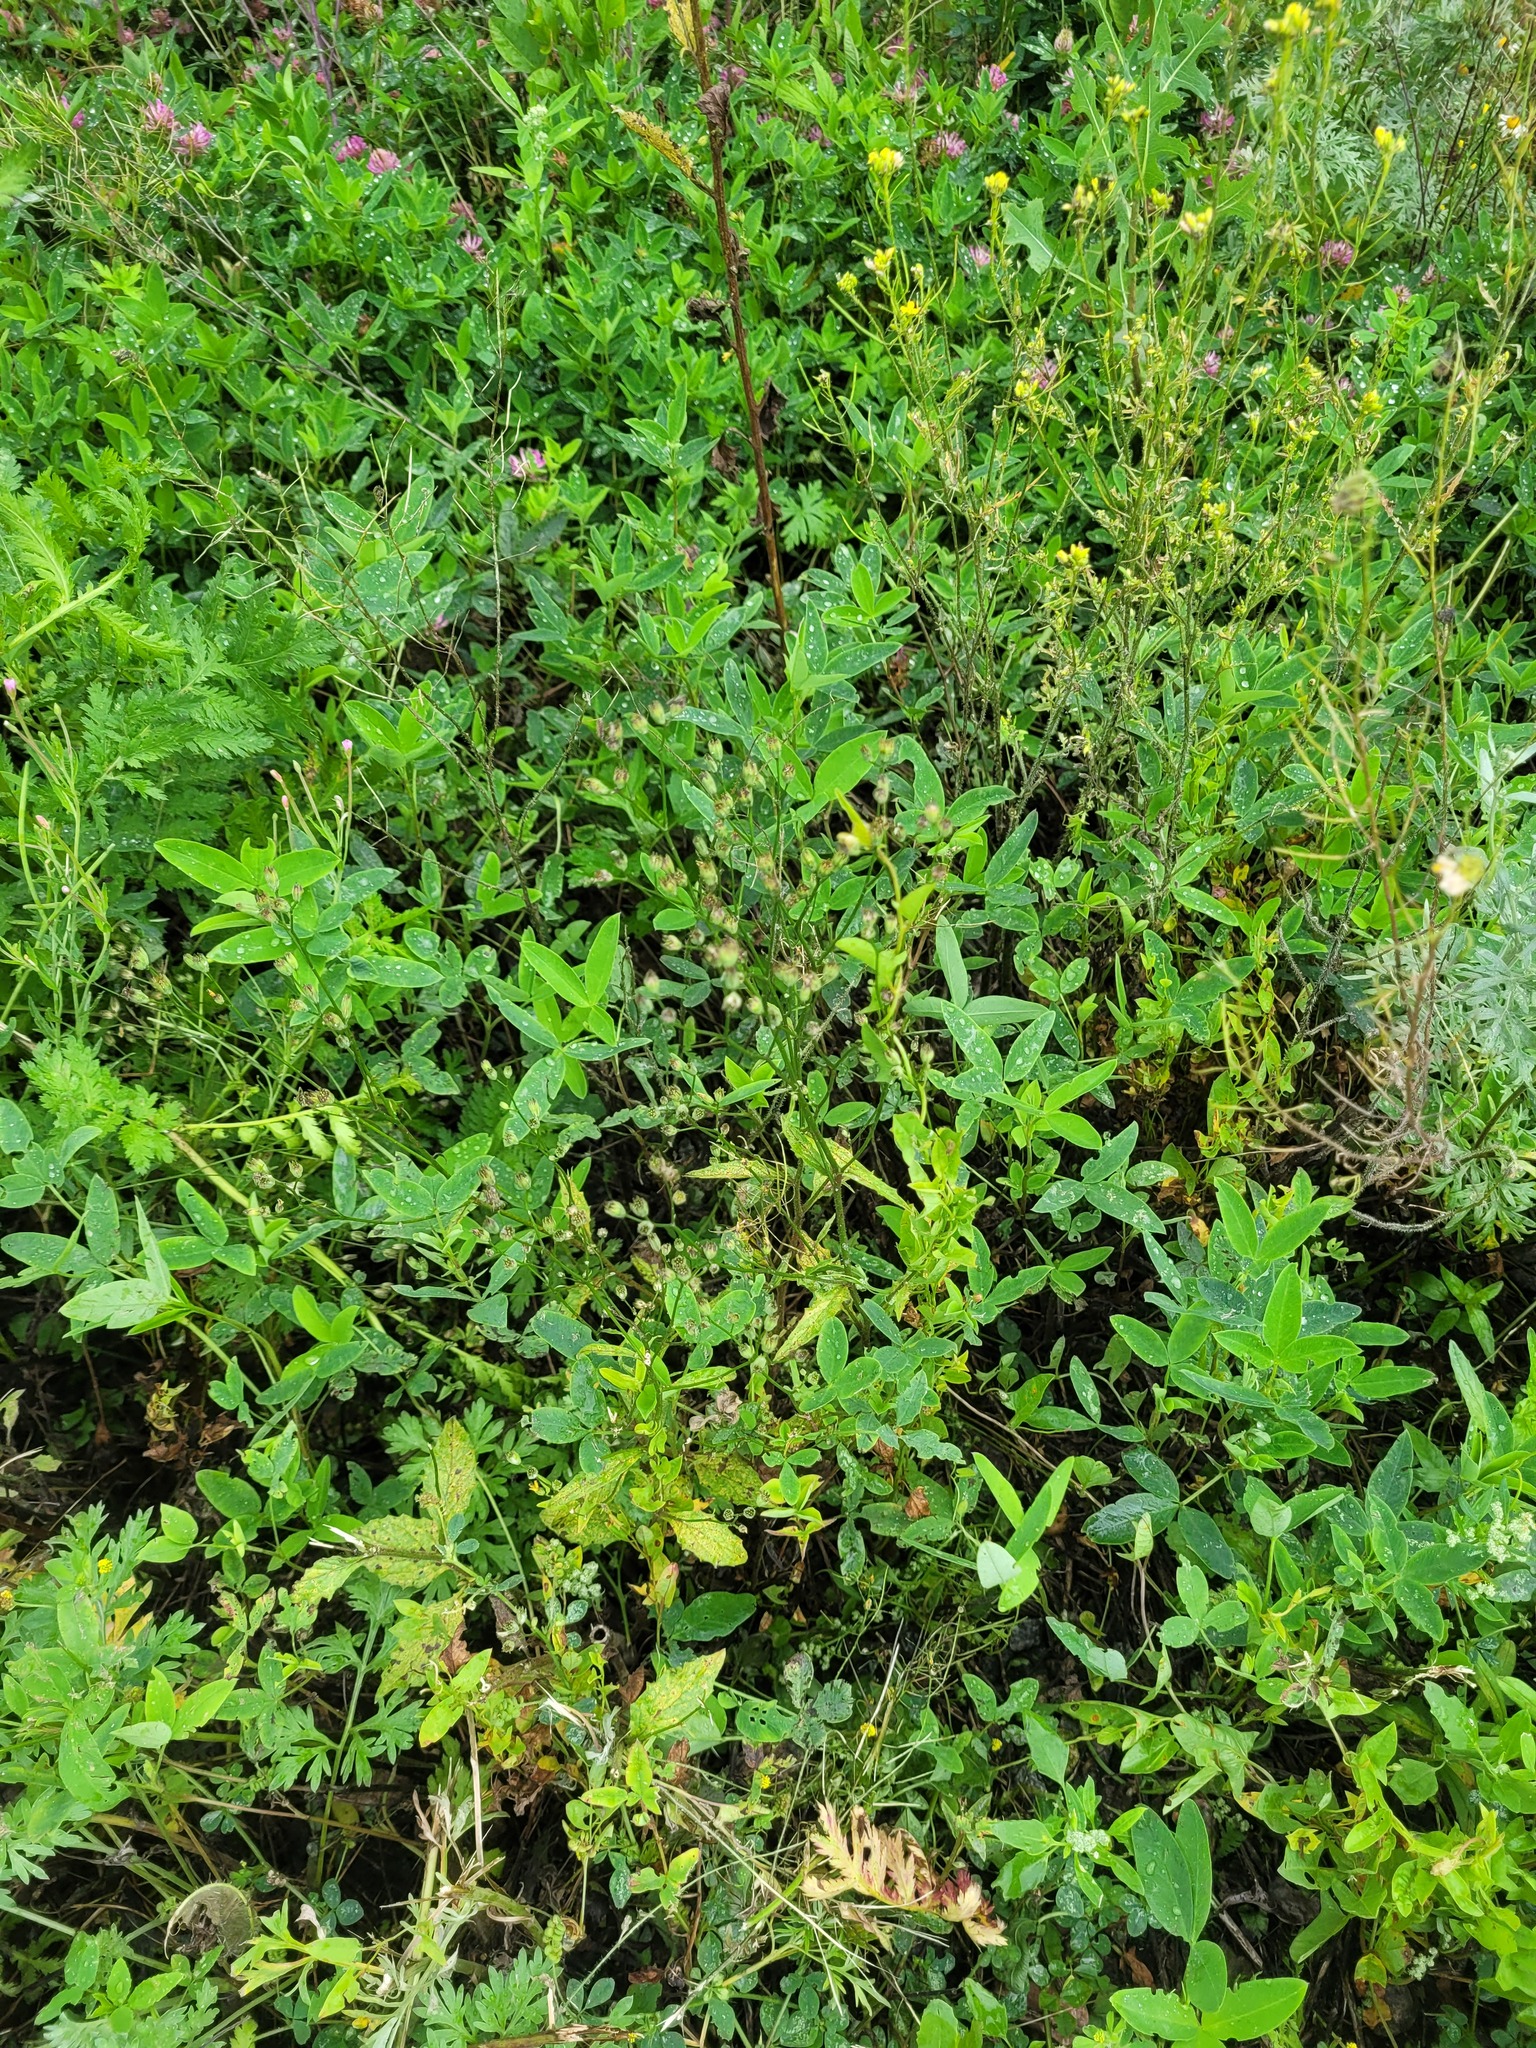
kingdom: Plantae
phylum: Tracheophyta
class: Magnoliopsida
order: Asterales
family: Asteraceae
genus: Lapsana
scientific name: Lapsana communis
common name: Nipplewort
